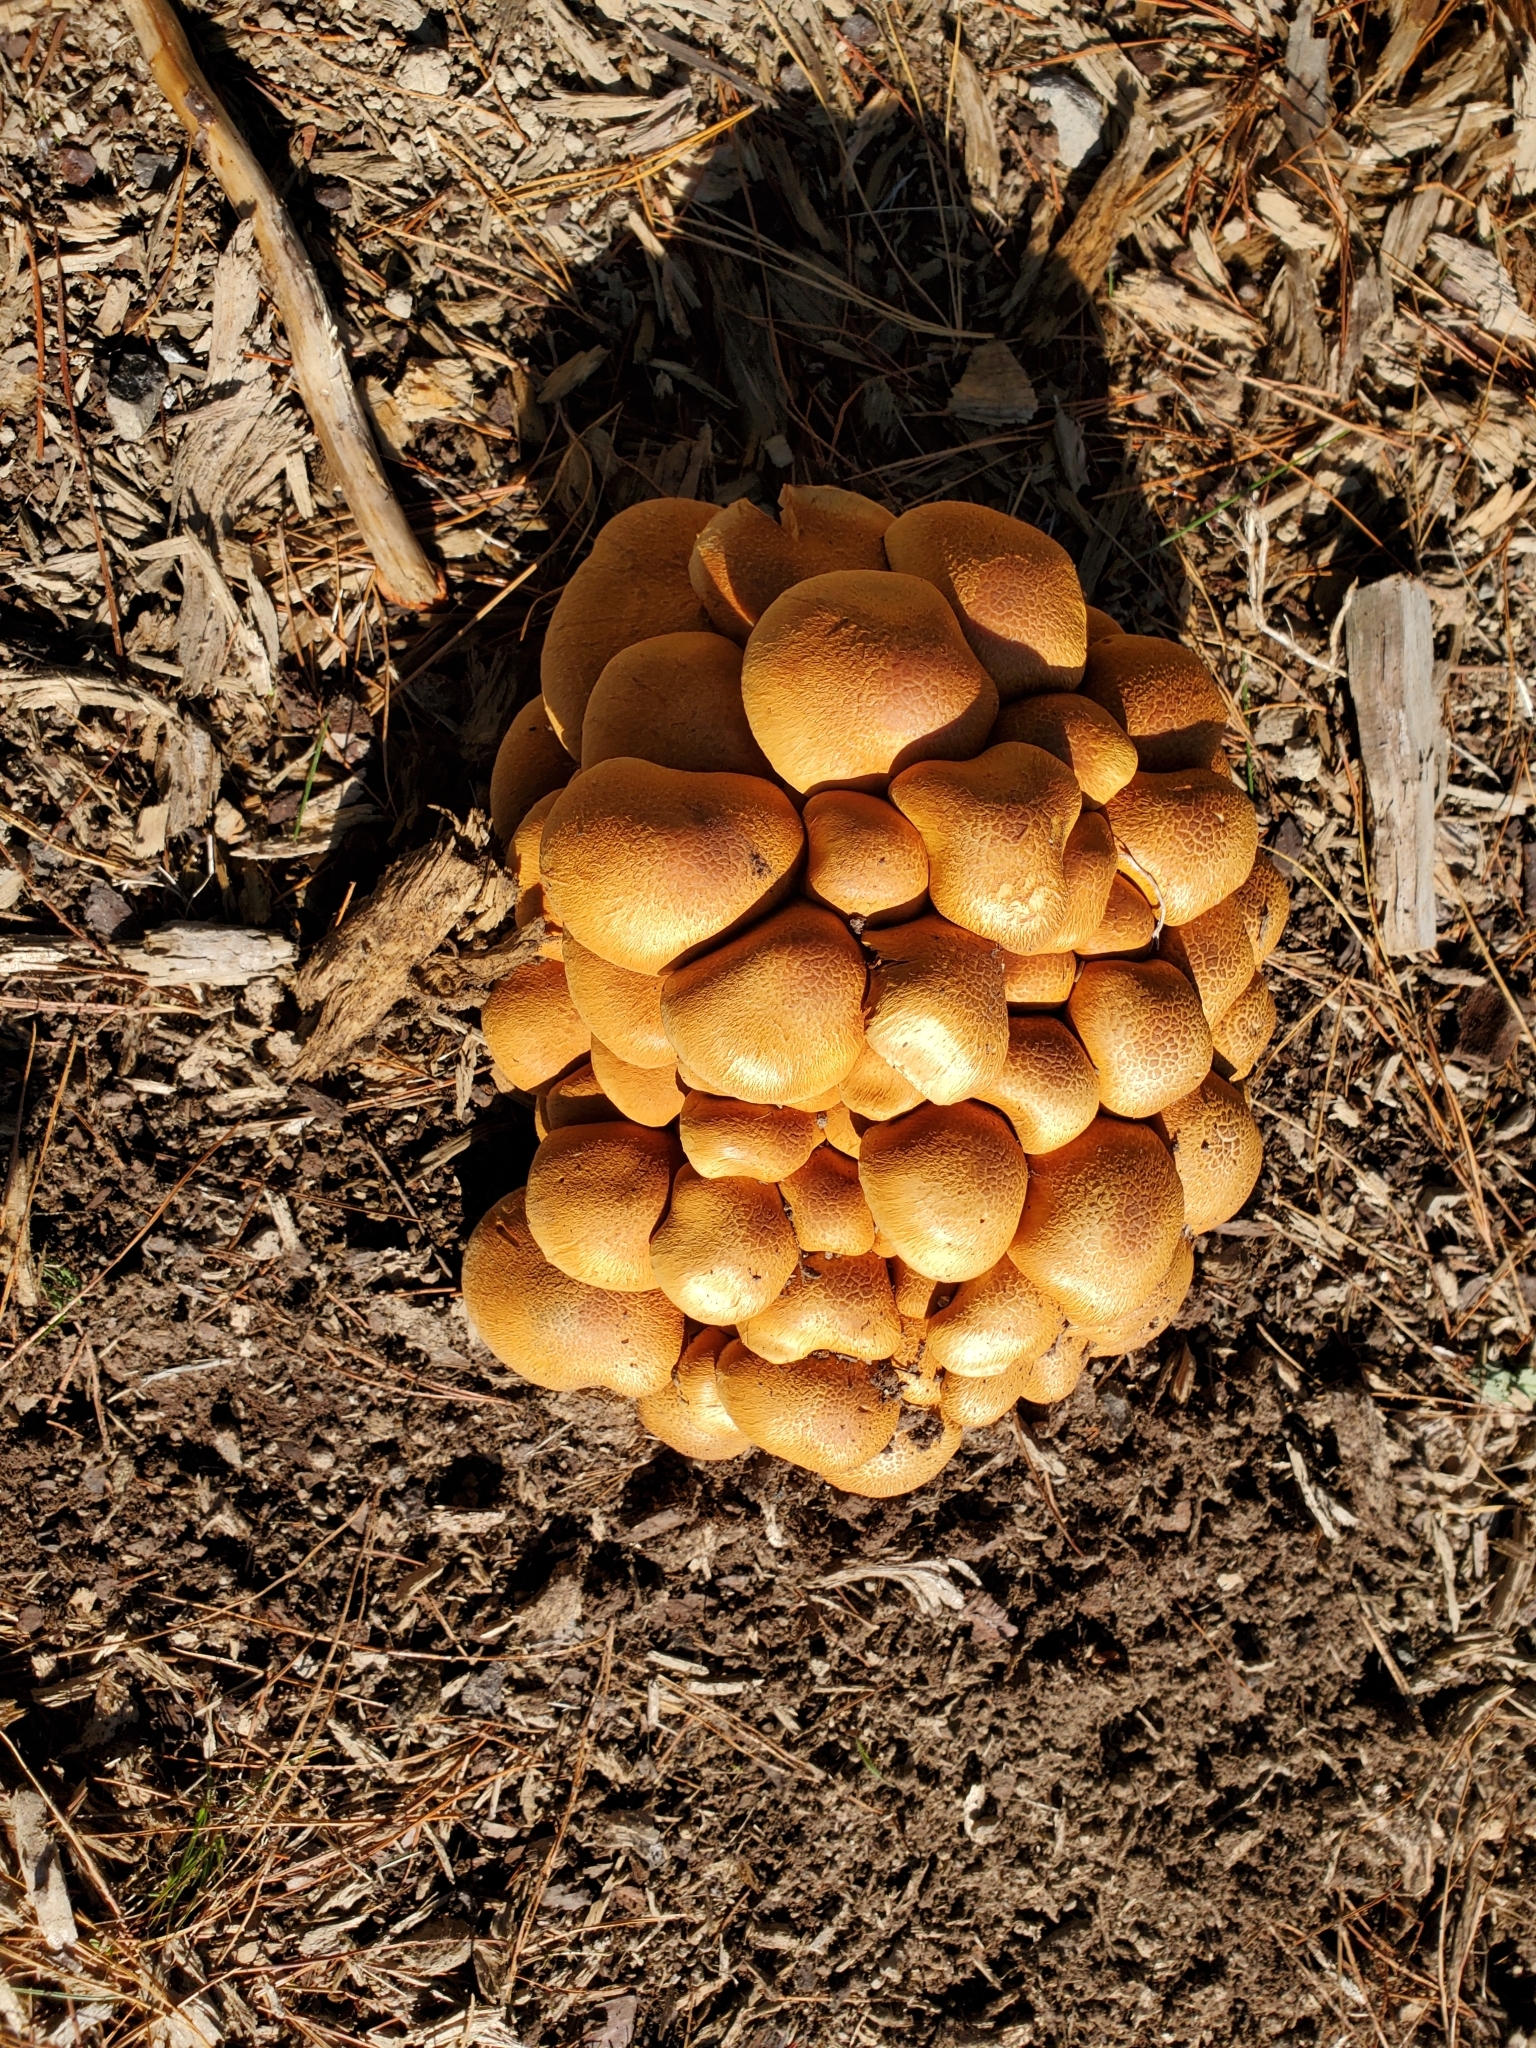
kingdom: Fungi
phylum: Basidiomycota
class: Agaricomycetes
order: Agaricales
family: Hymenogastraceae
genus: Gymnopilus
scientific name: Gymnopilus junonius
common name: Spectacular rustgill
